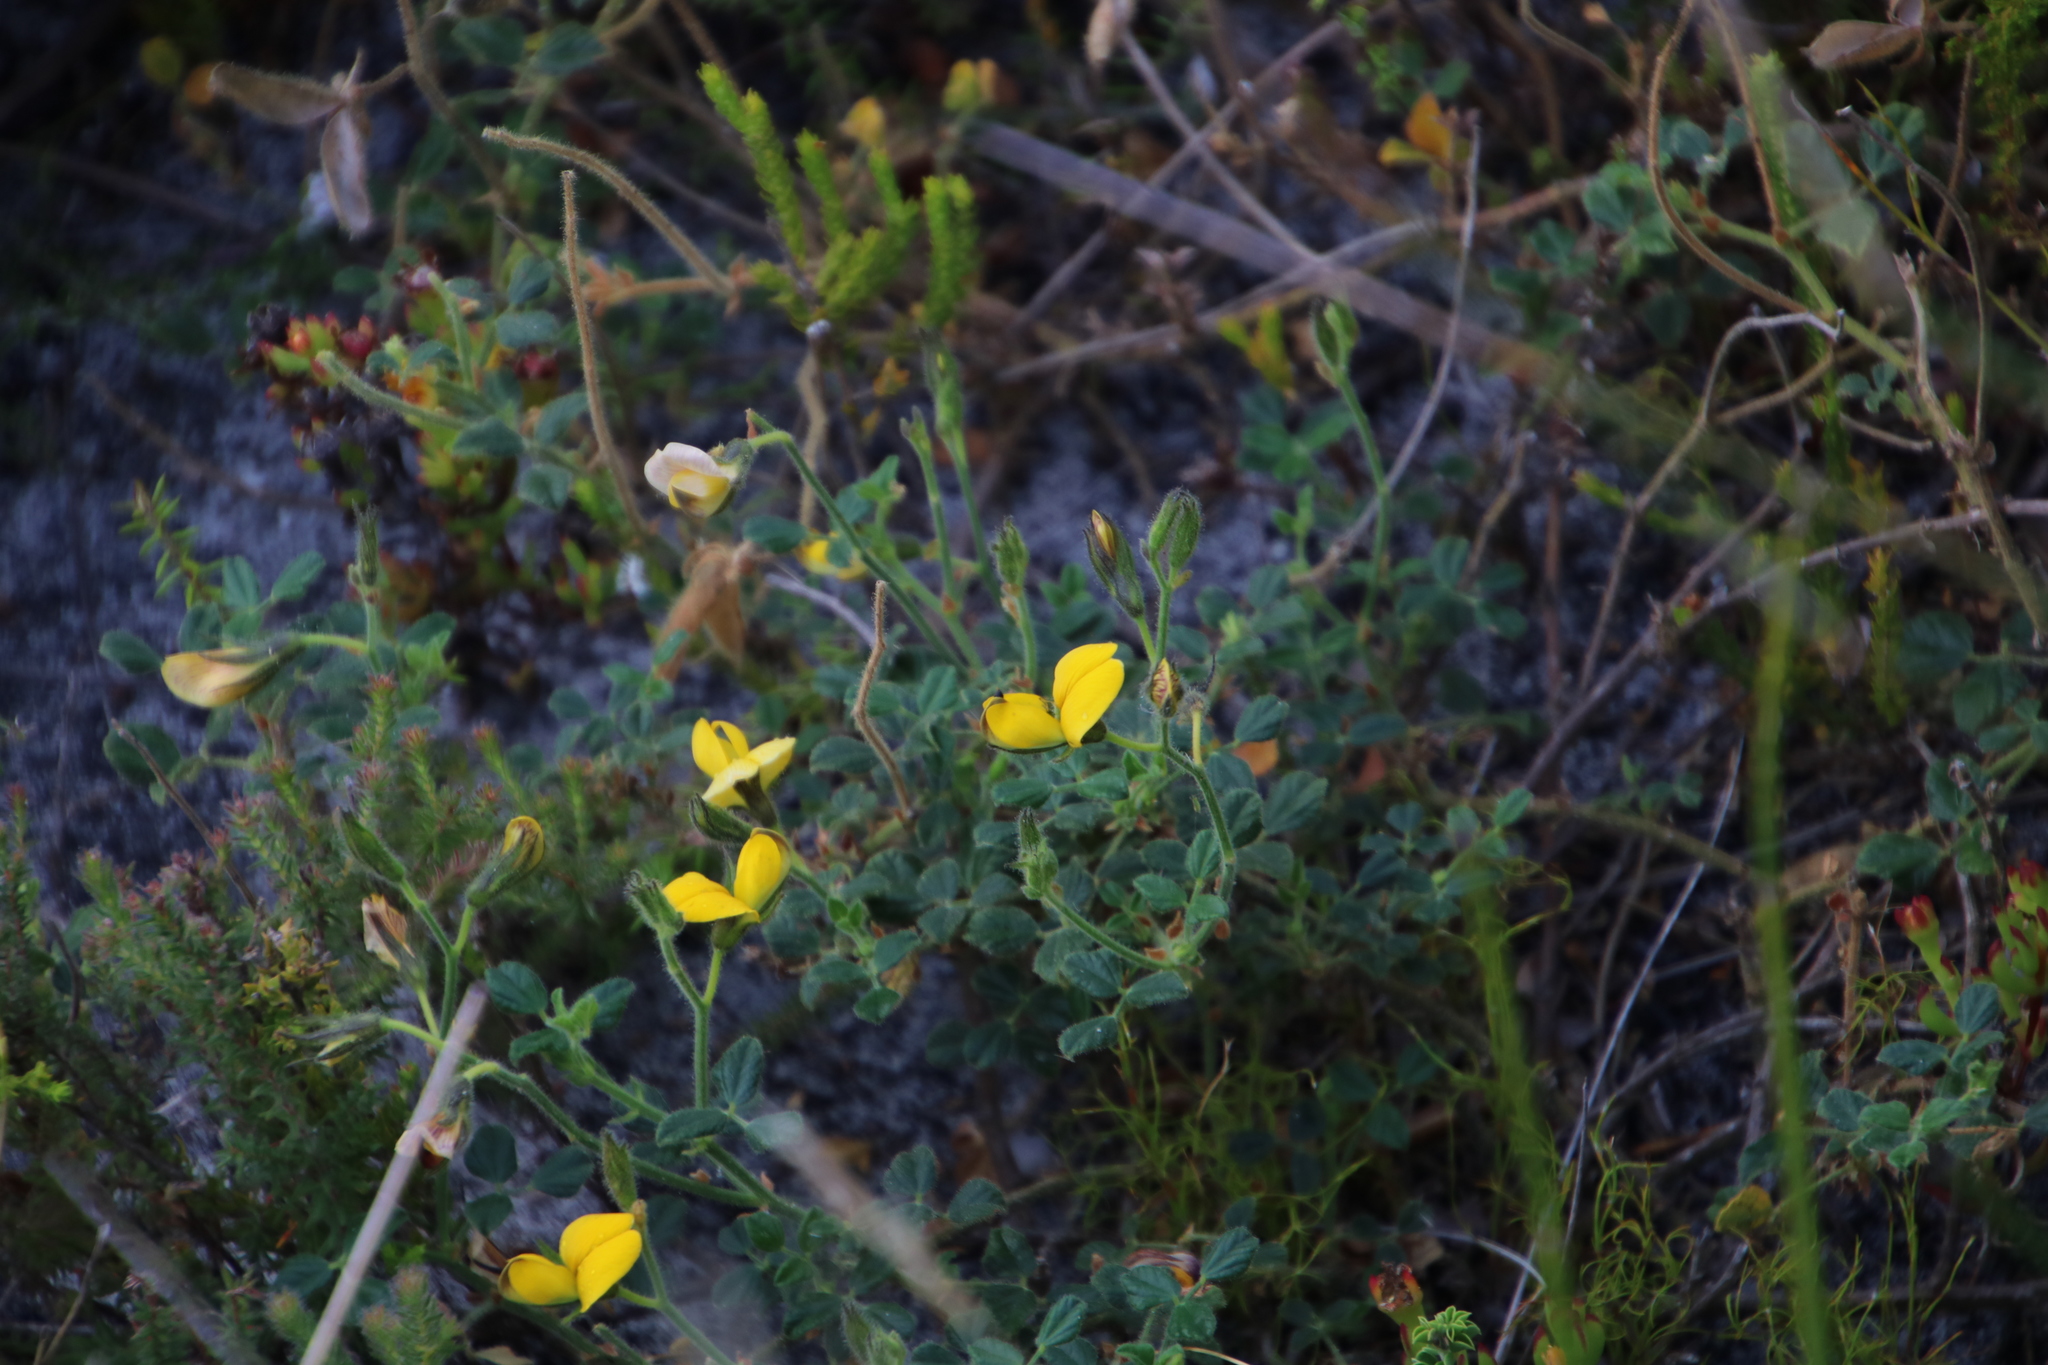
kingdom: Plantae
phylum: Tracheophyta
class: Magnoliopsida
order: Fabales
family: Fabaceae
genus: Bolusafra
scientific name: Bolusafra bituminosa
